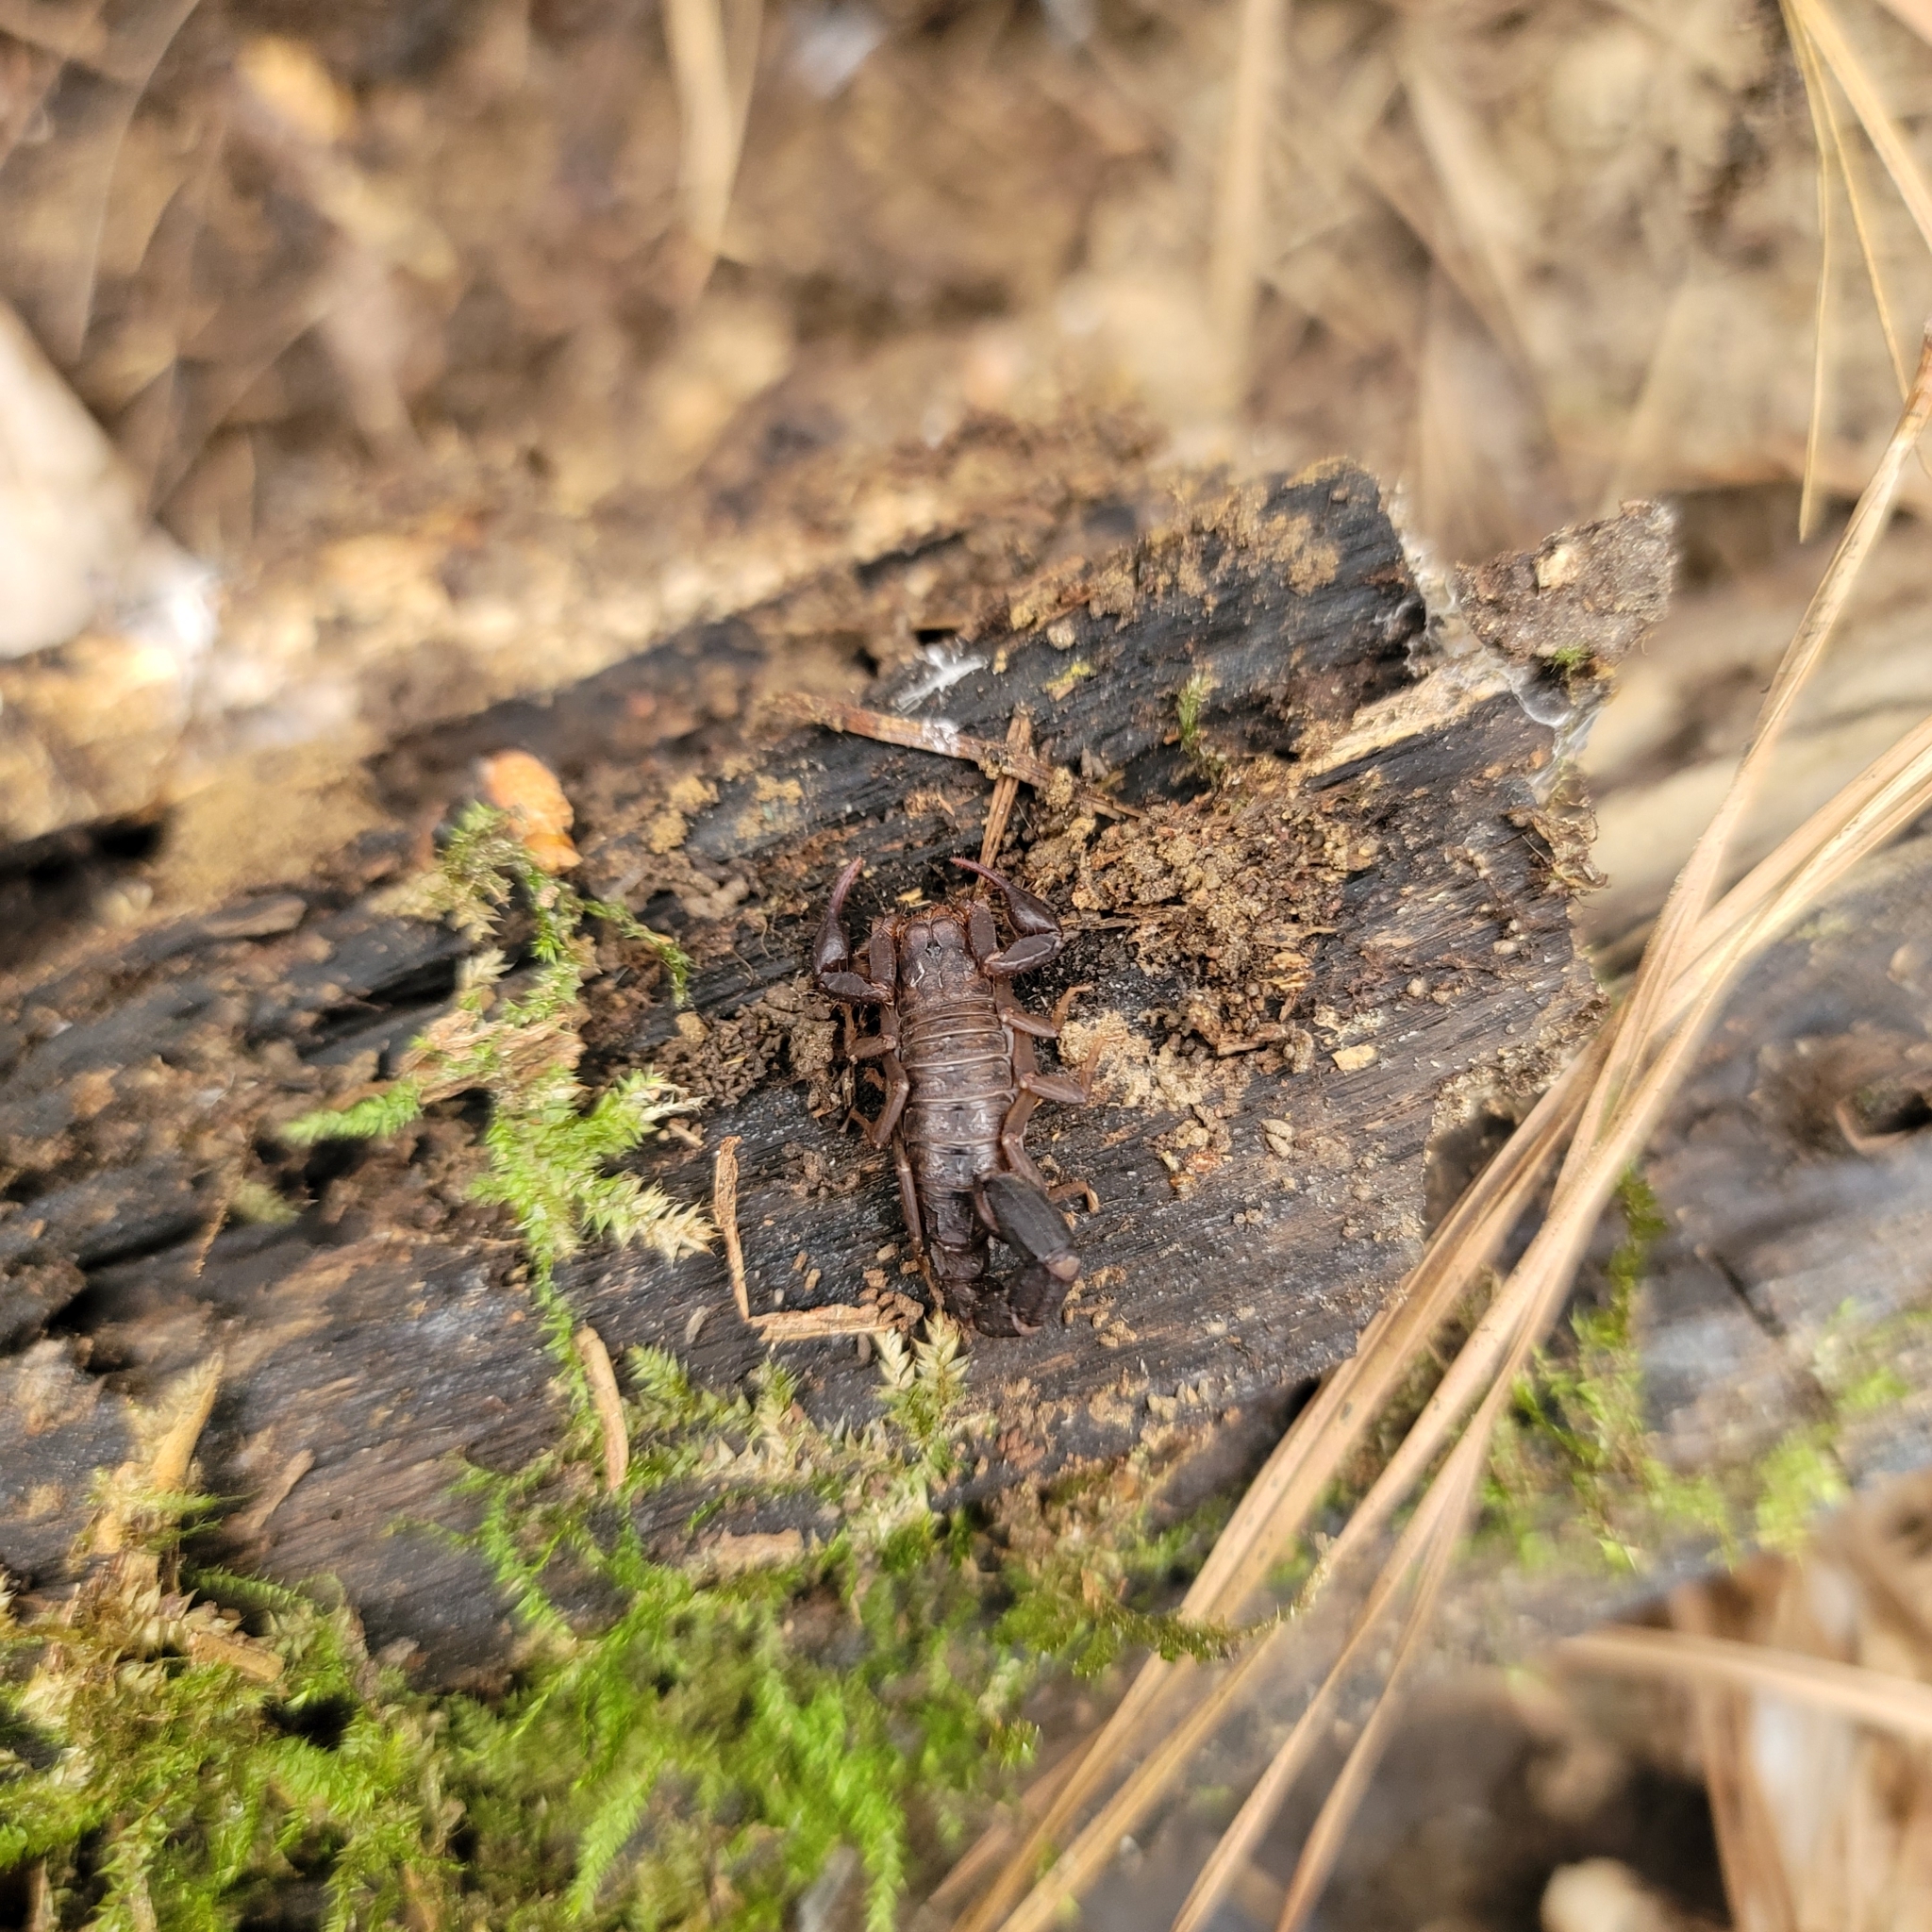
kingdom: Animalia
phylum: Arthropoda
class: Arachnida
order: Scorpiones
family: Vaejovidae
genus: Vaejovis
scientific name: Vaejovis carolinianus
